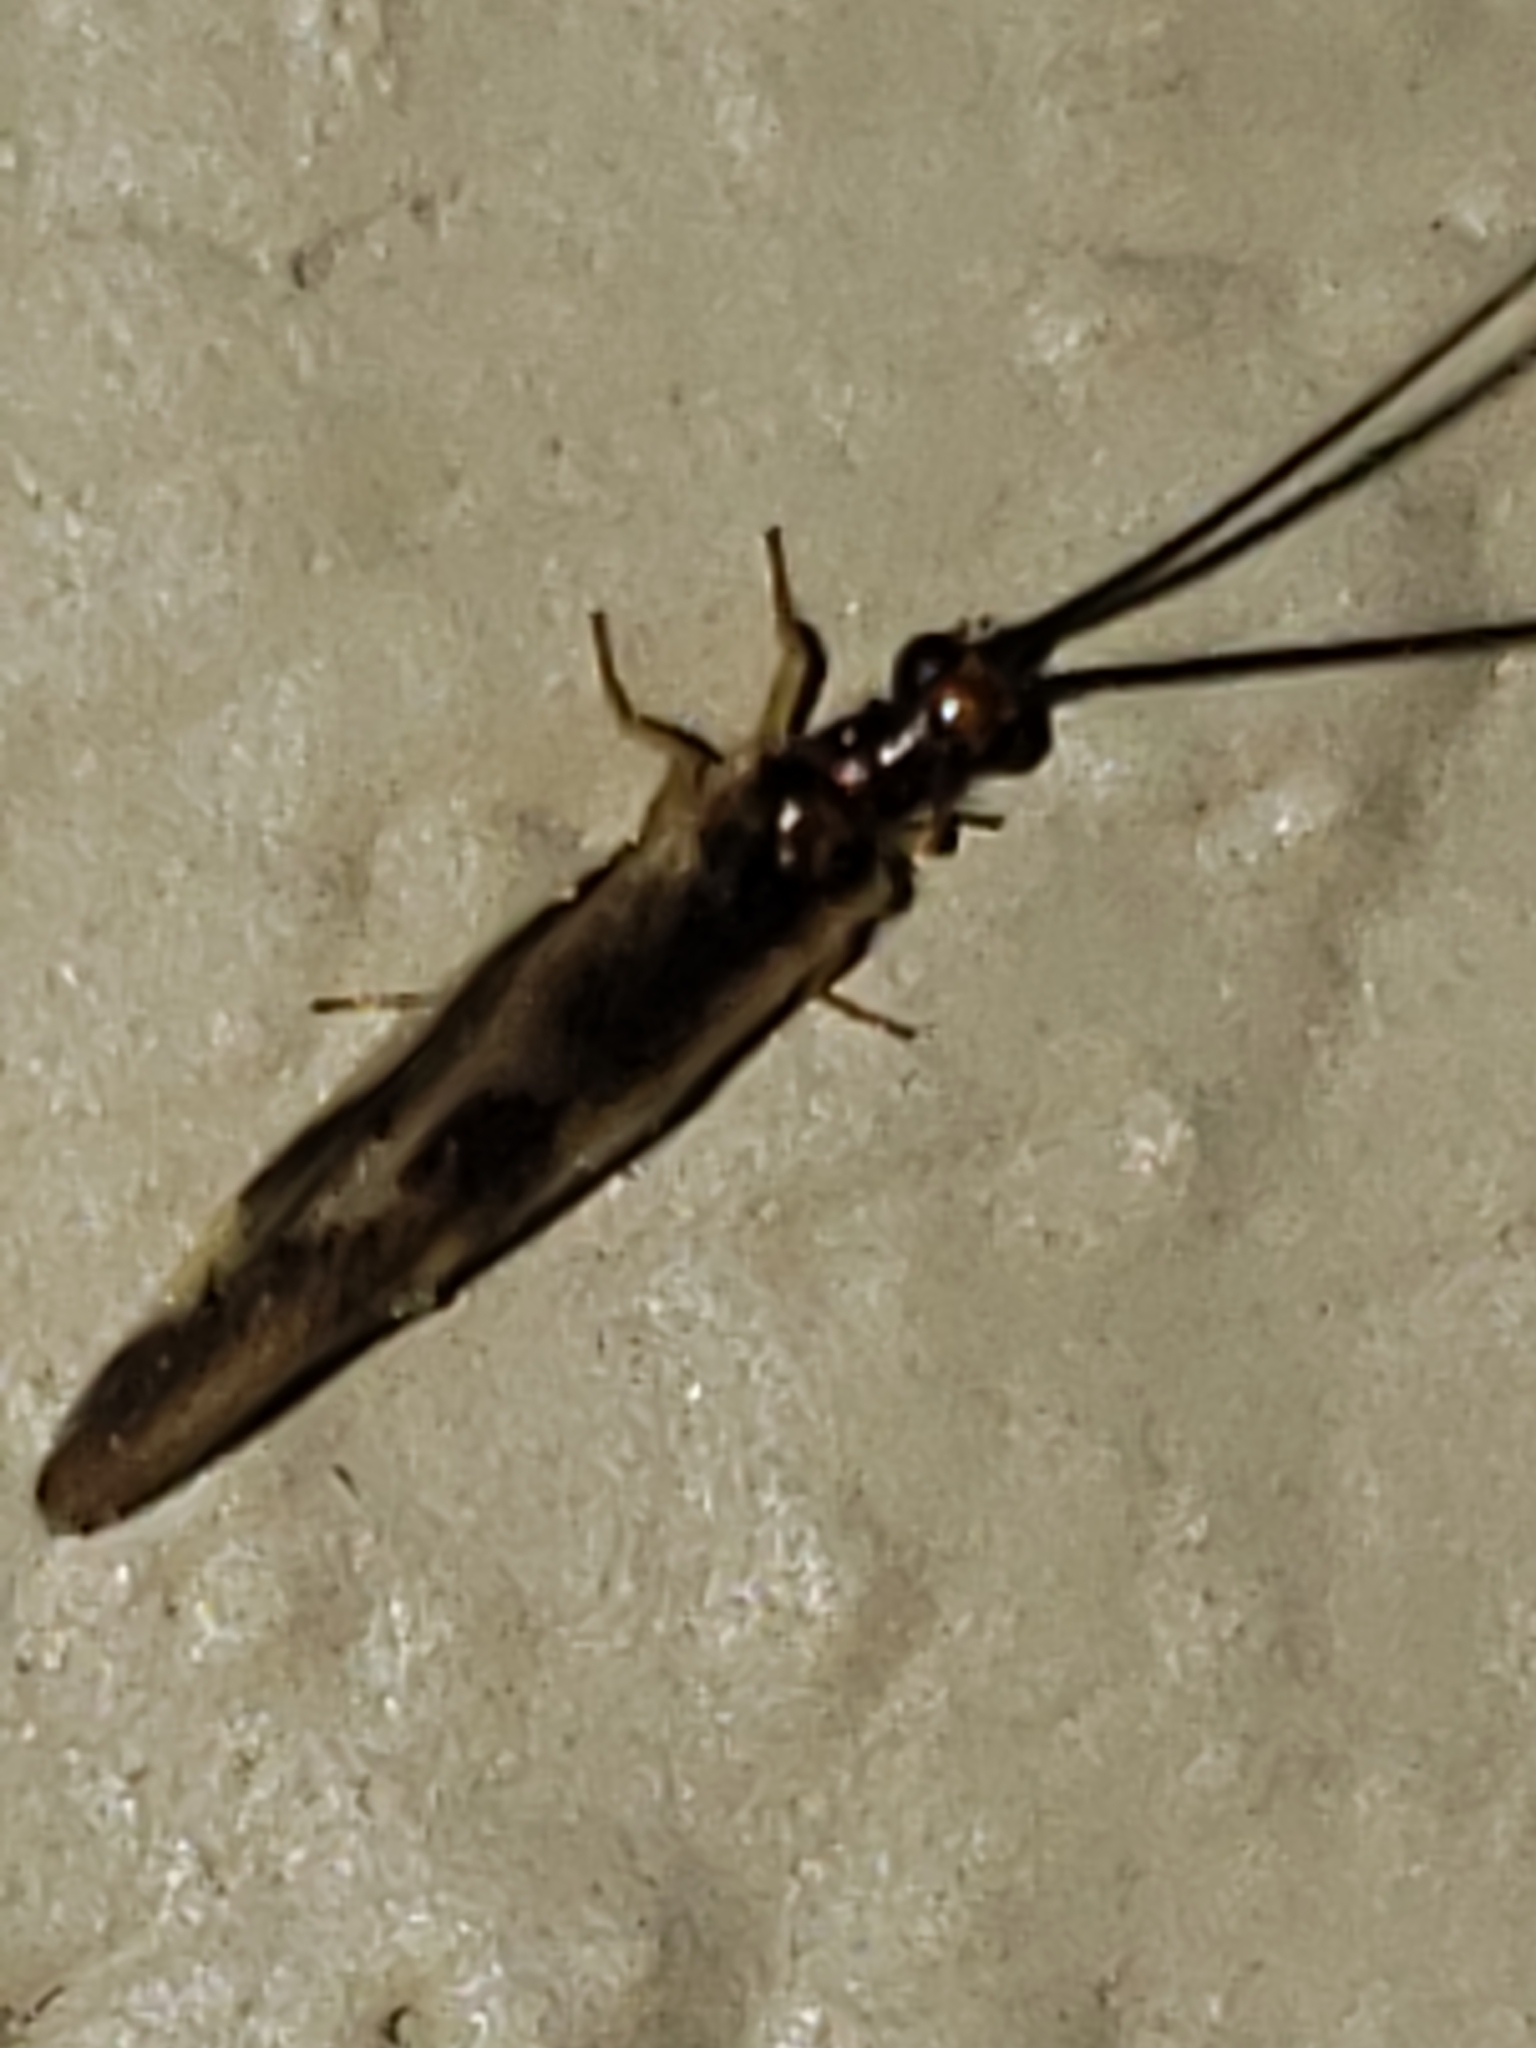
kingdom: Animalia
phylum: Arthropoda
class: Insecta
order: Neuroptera
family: Sisyridae
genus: Climacia
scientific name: Climacia areolaris
